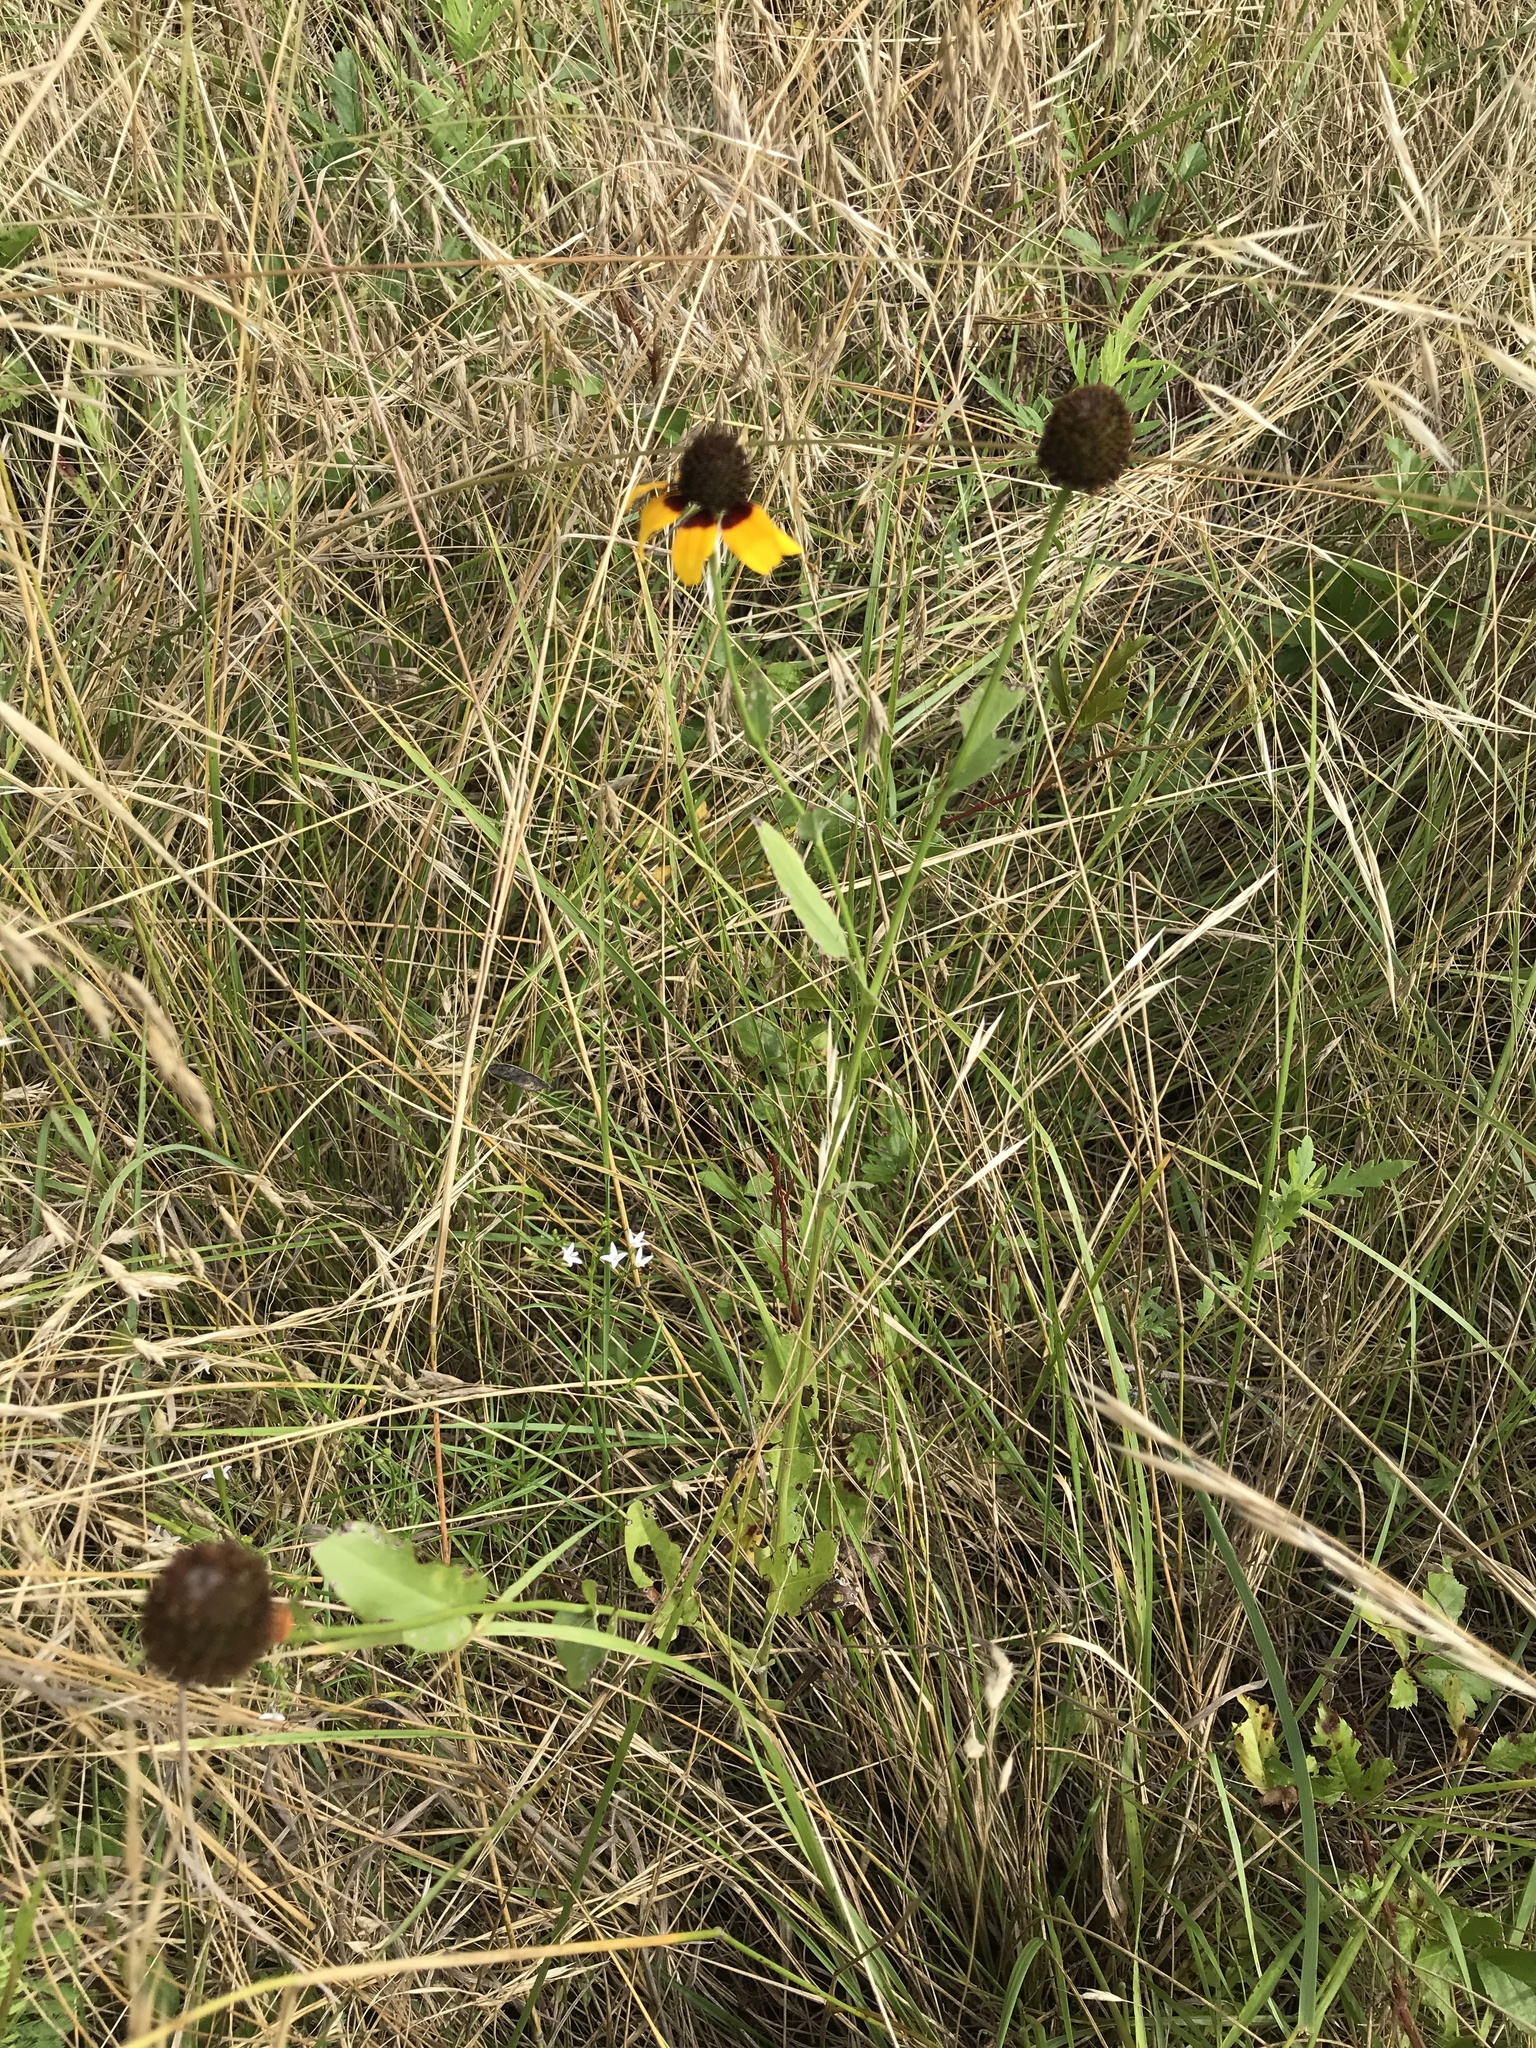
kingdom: Plantae
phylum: Tracheophyta
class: Magnoliopsida
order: Asterales
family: Asteraceae
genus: Rudbeckia
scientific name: Rudbeckia amplexicaulis
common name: Clasping-leaf coneflower
